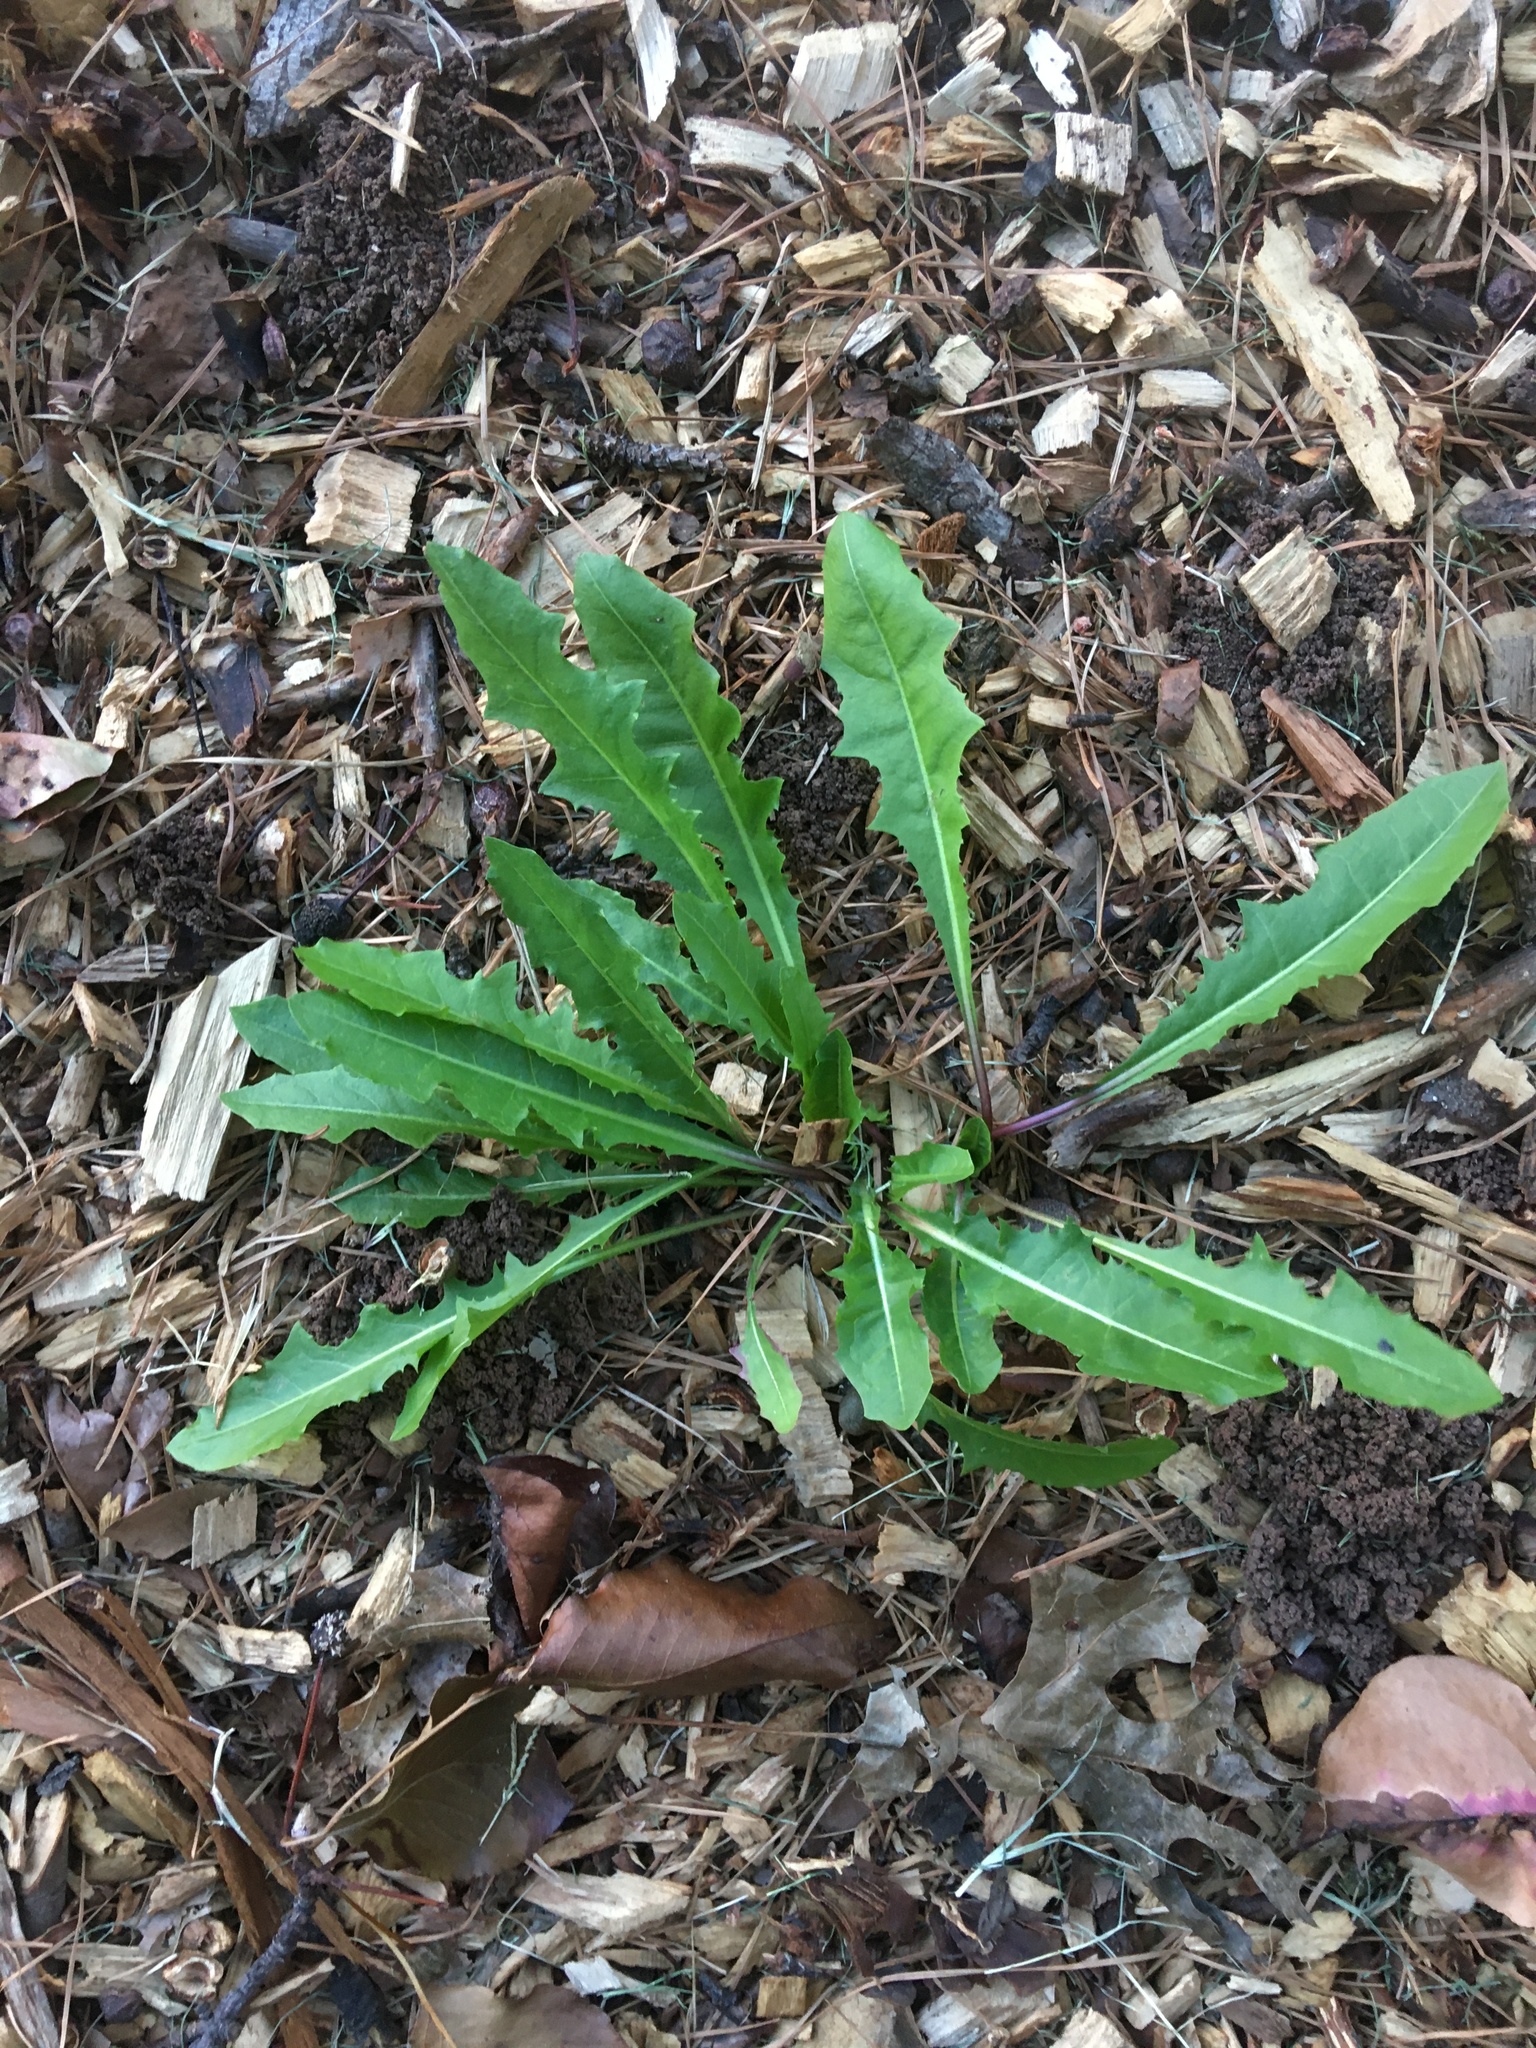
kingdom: Plantae
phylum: Tracheophyta
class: Magnoliopsida
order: Asterales
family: Asteraceae
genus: Taraxacum
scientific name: Taraxacum officinale
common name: Common dandelion
